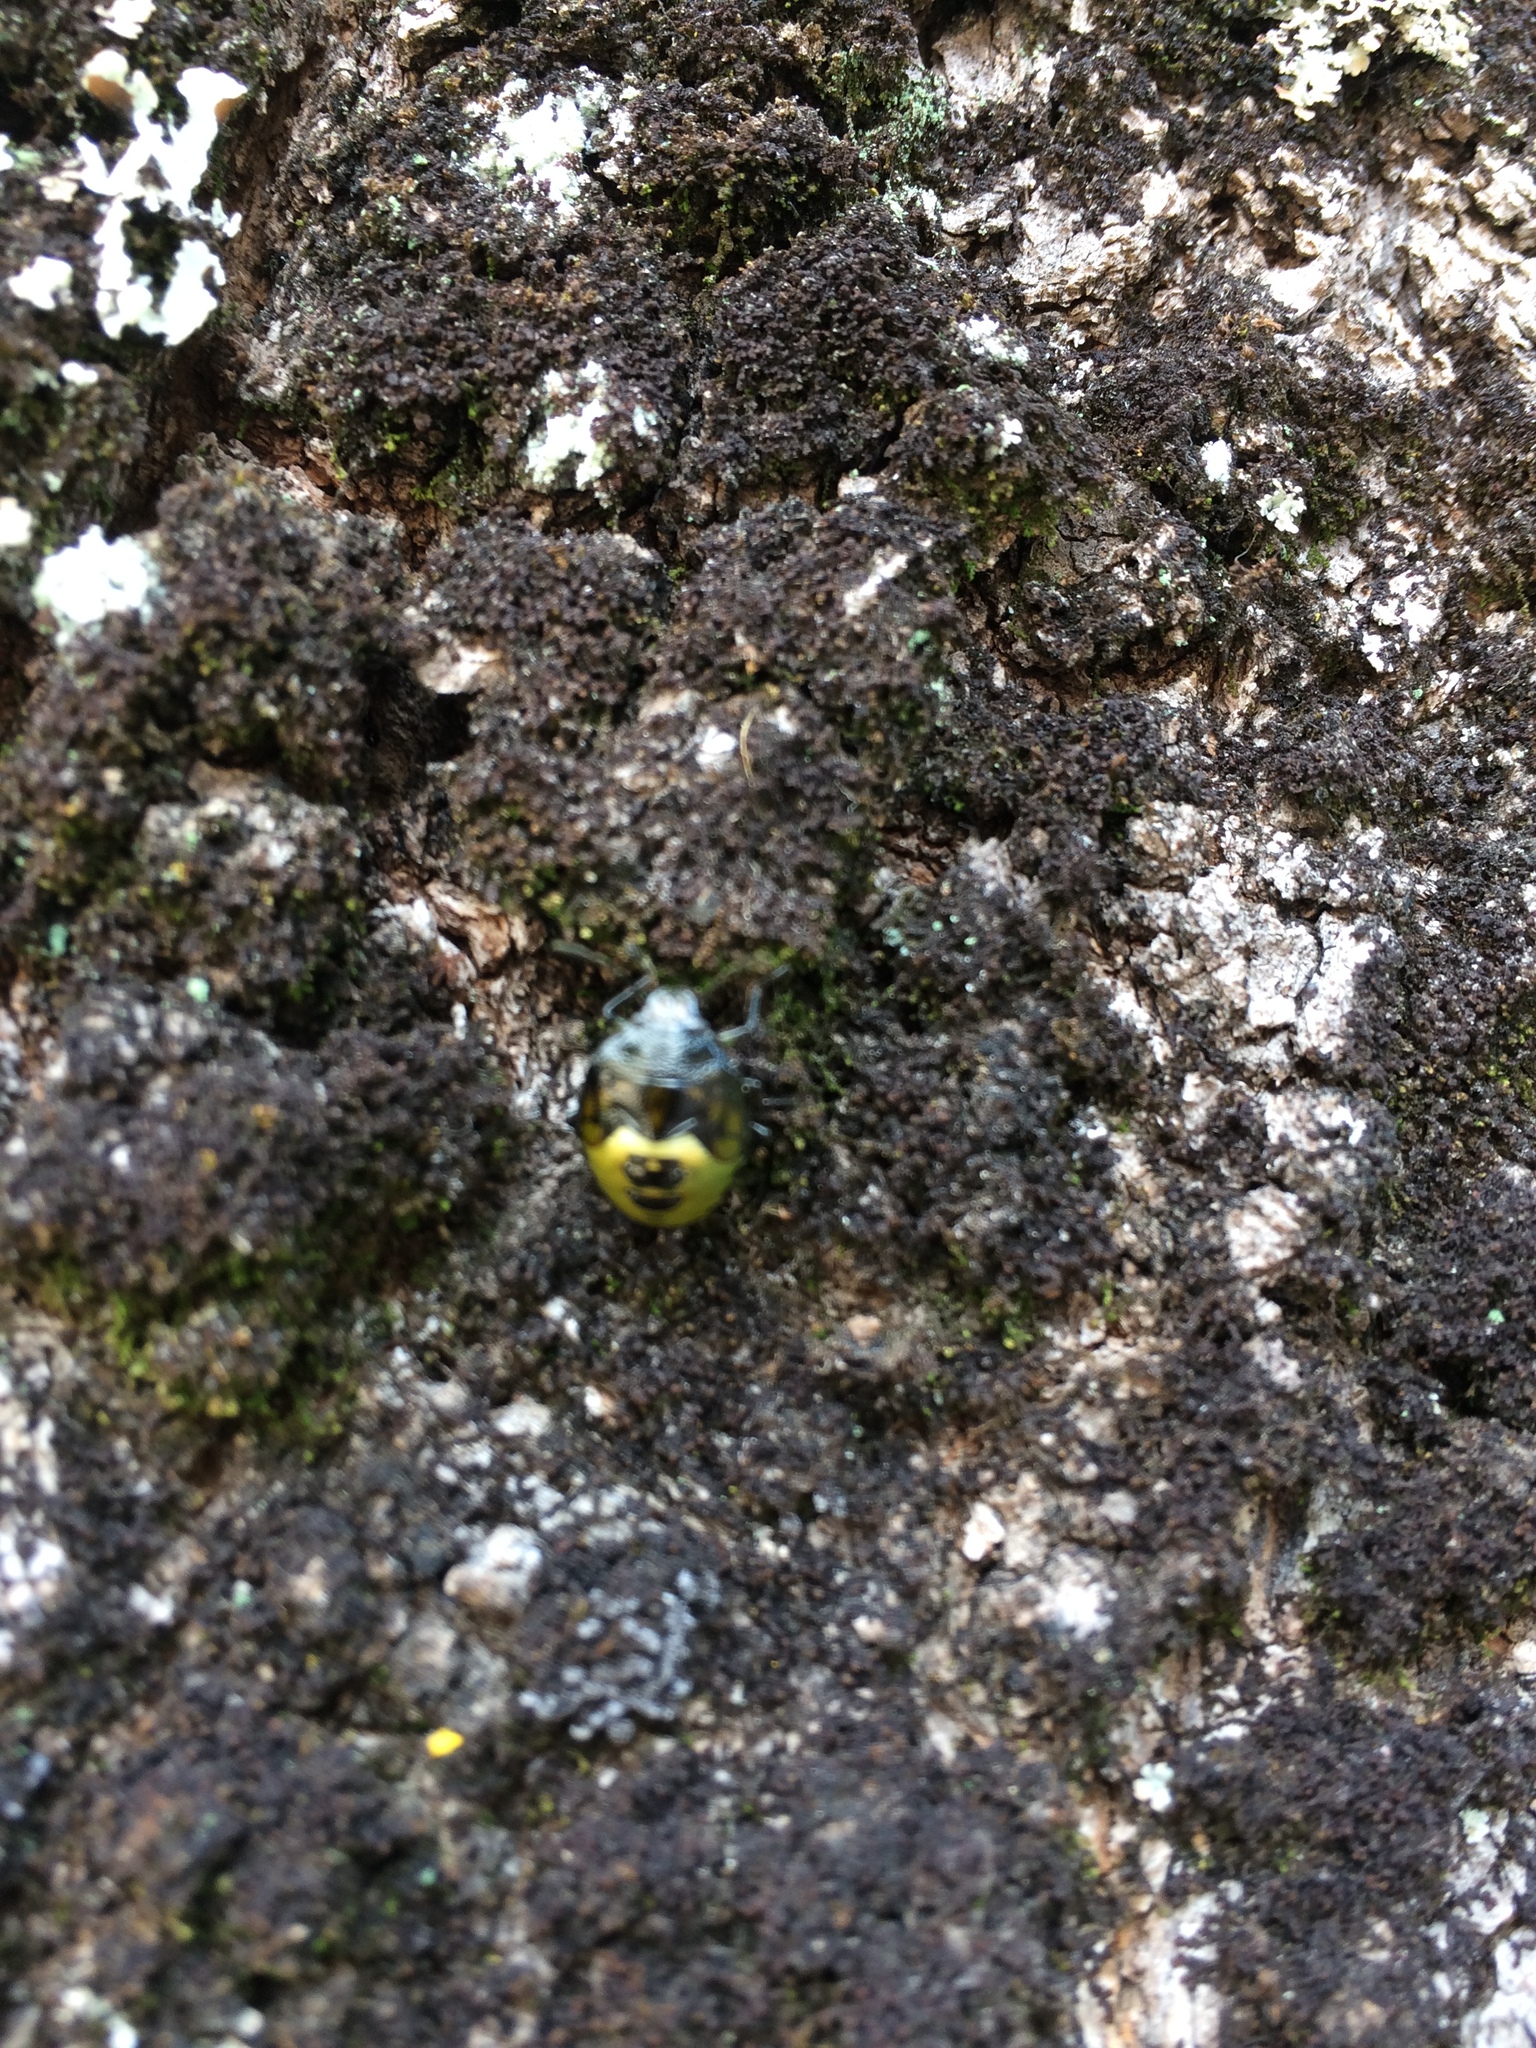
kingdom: Animalia
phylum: Arthropoda
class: Insecta
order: Hemiptera
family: Pentatomidae
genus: Glaucias
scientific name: Glaucias amyota
